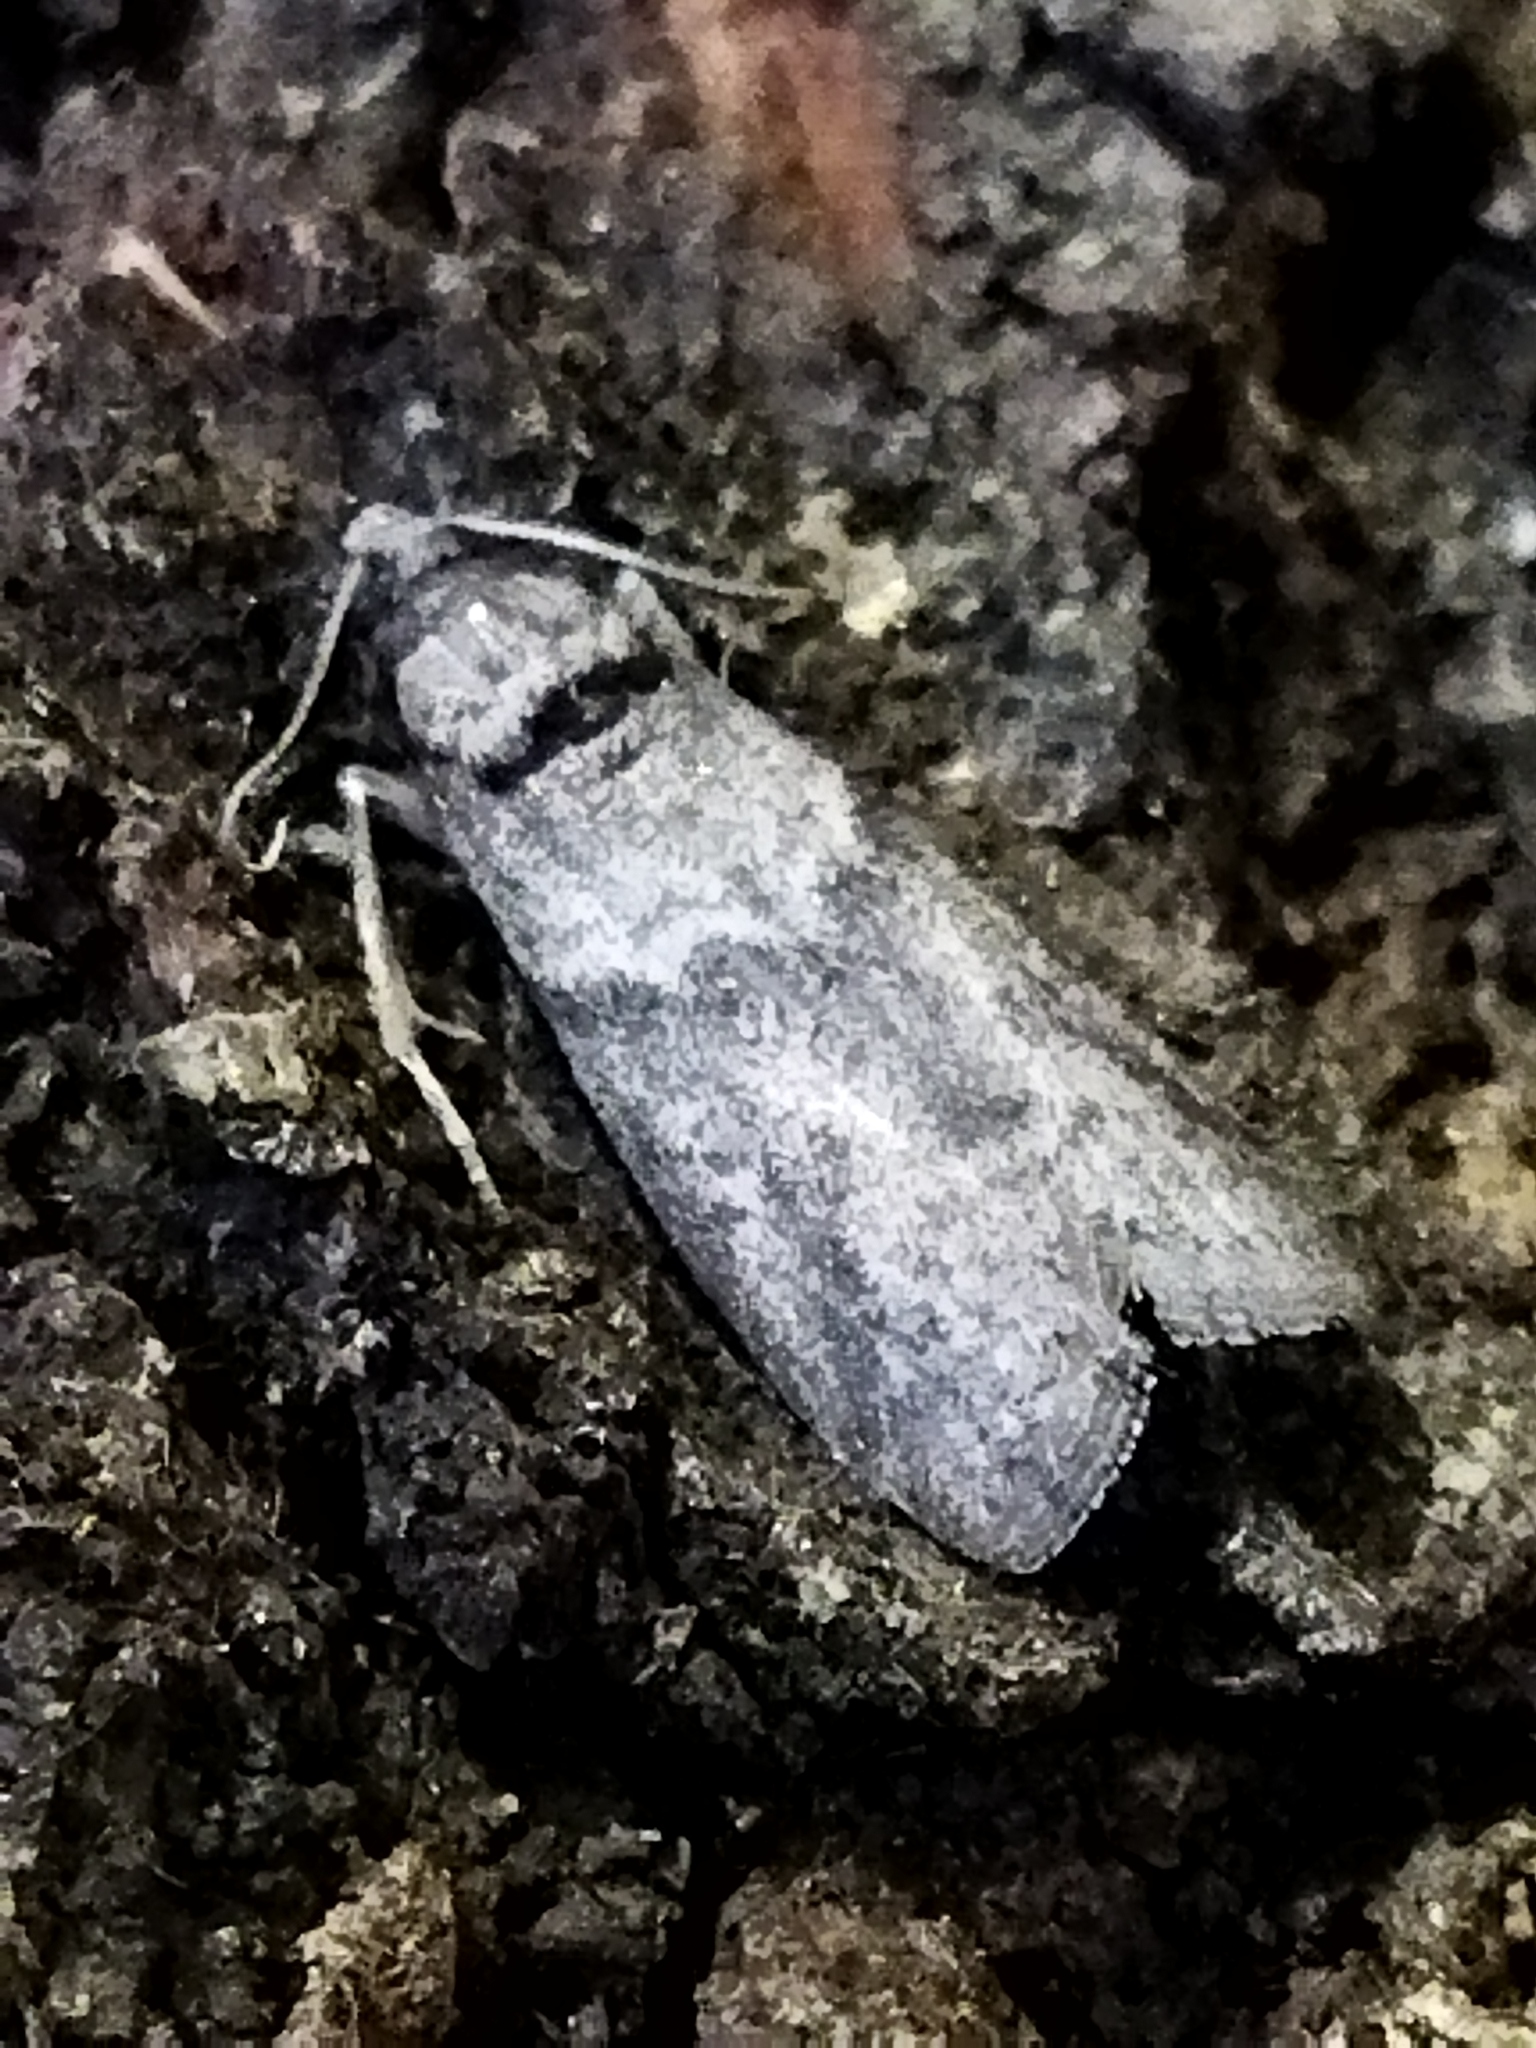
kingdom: Animalia
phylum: Arthropoda
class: Insecta
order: Lepidoptera
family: Pyralidae
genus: Ectomyelois
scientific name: Ectomyelois ceratoniae
